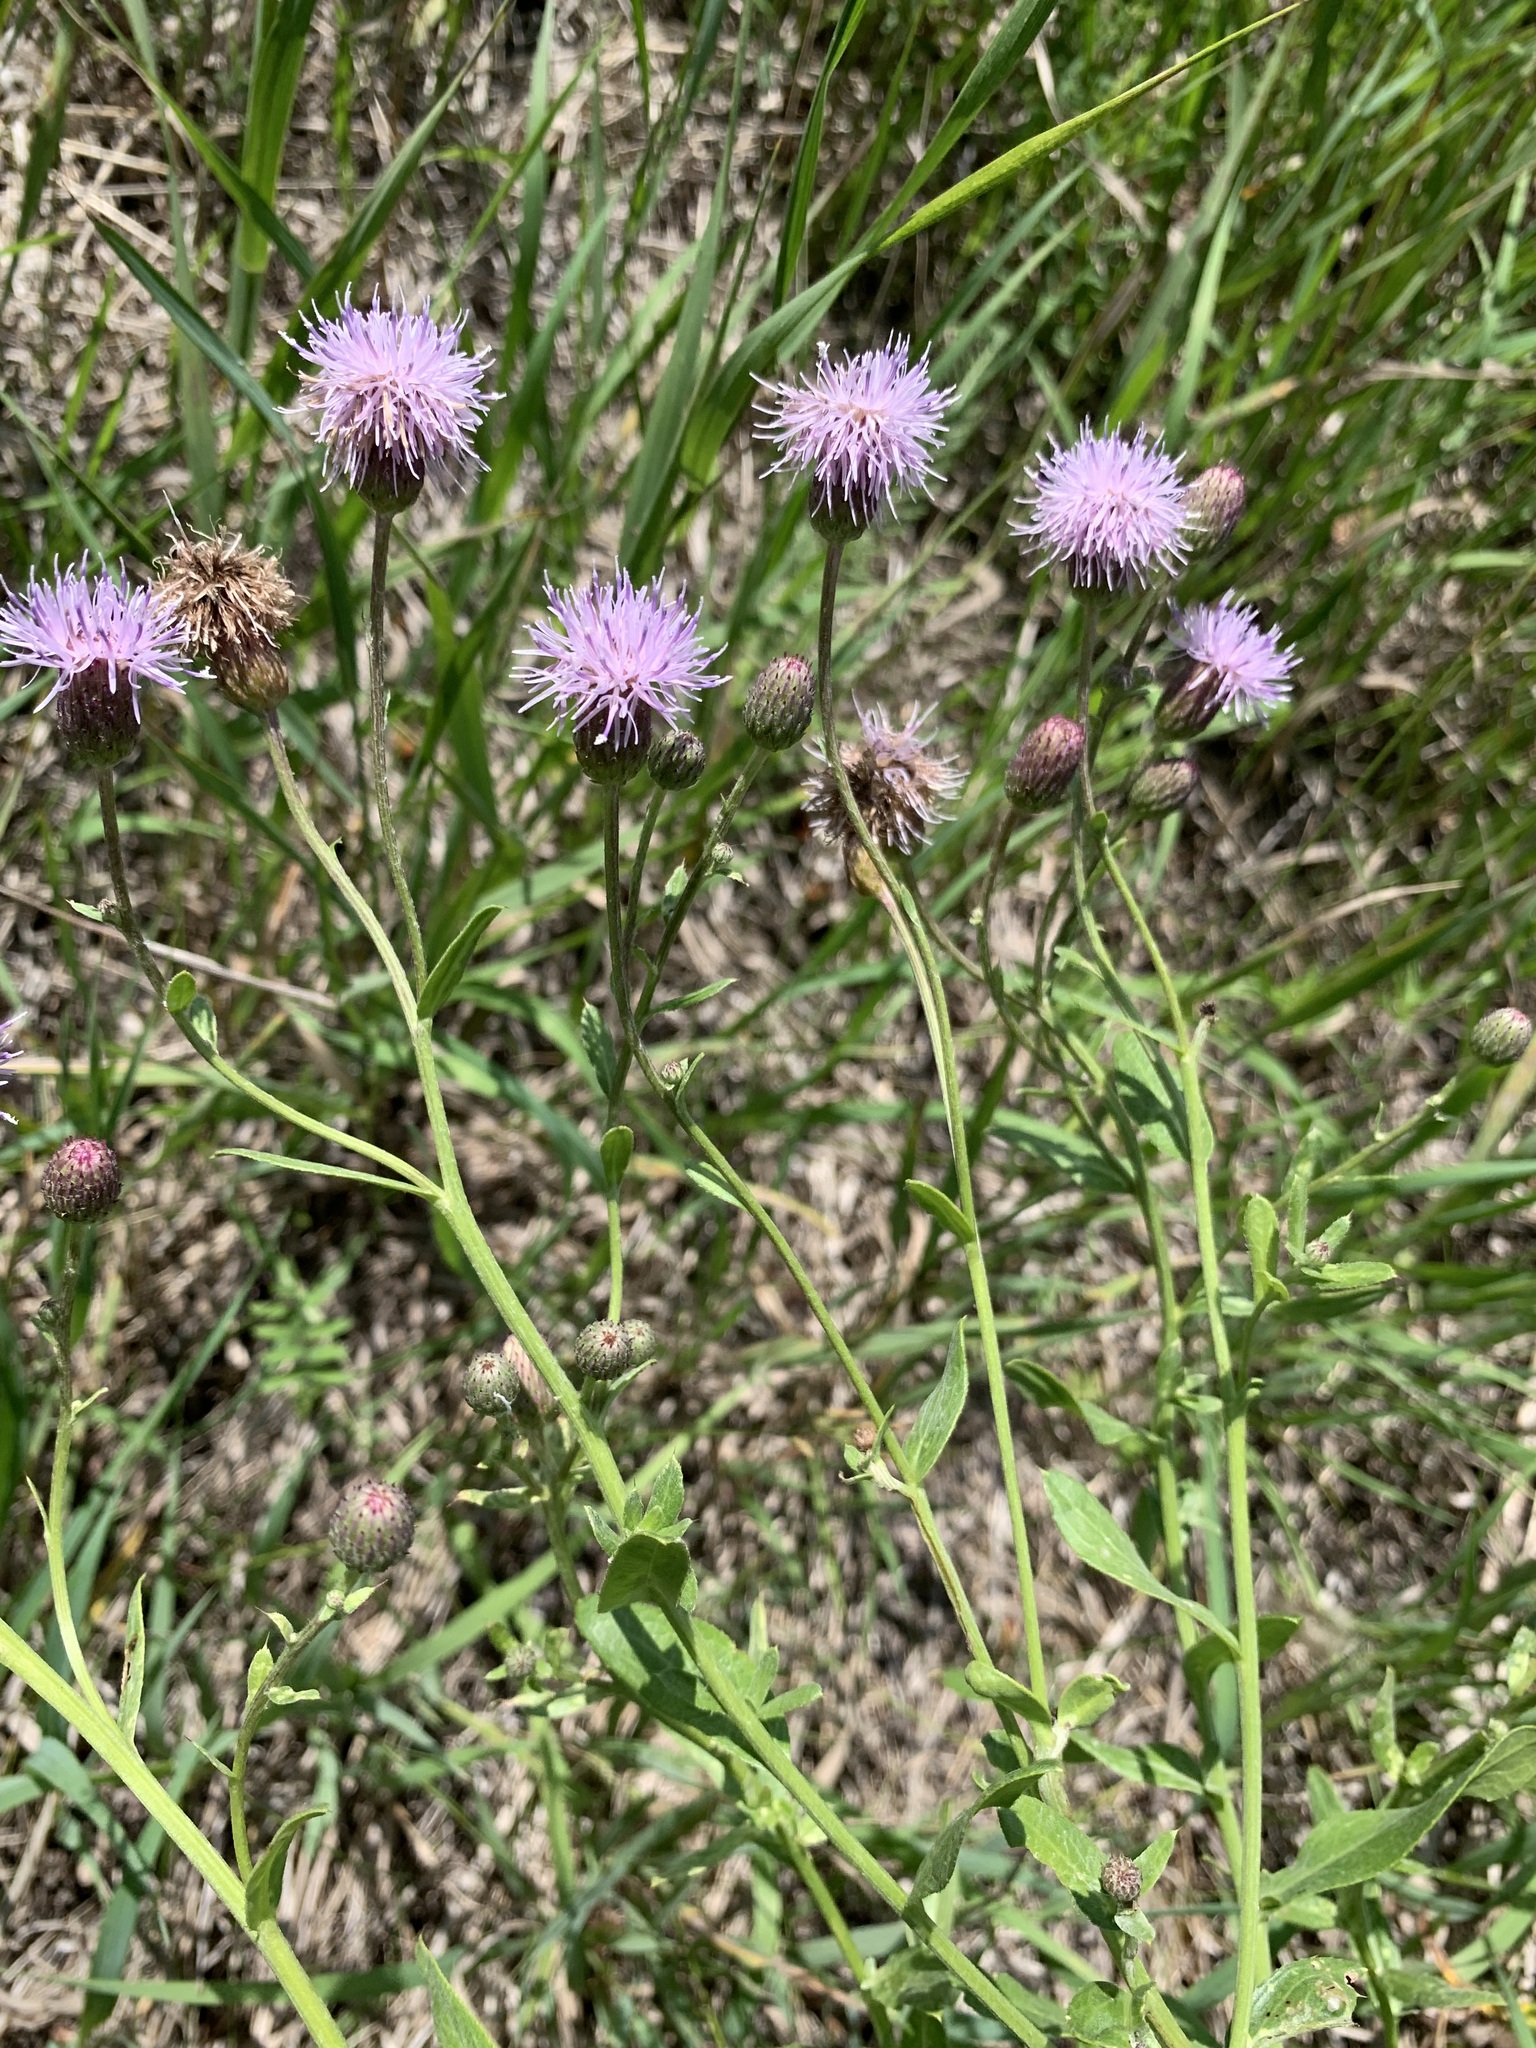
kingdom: Plantae
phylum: Tracheophyta
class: Magnoliopsida
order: Asterales
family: Asteraceae
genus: Cirsium
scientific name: Cirsium arvense
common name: Creeping thistle
